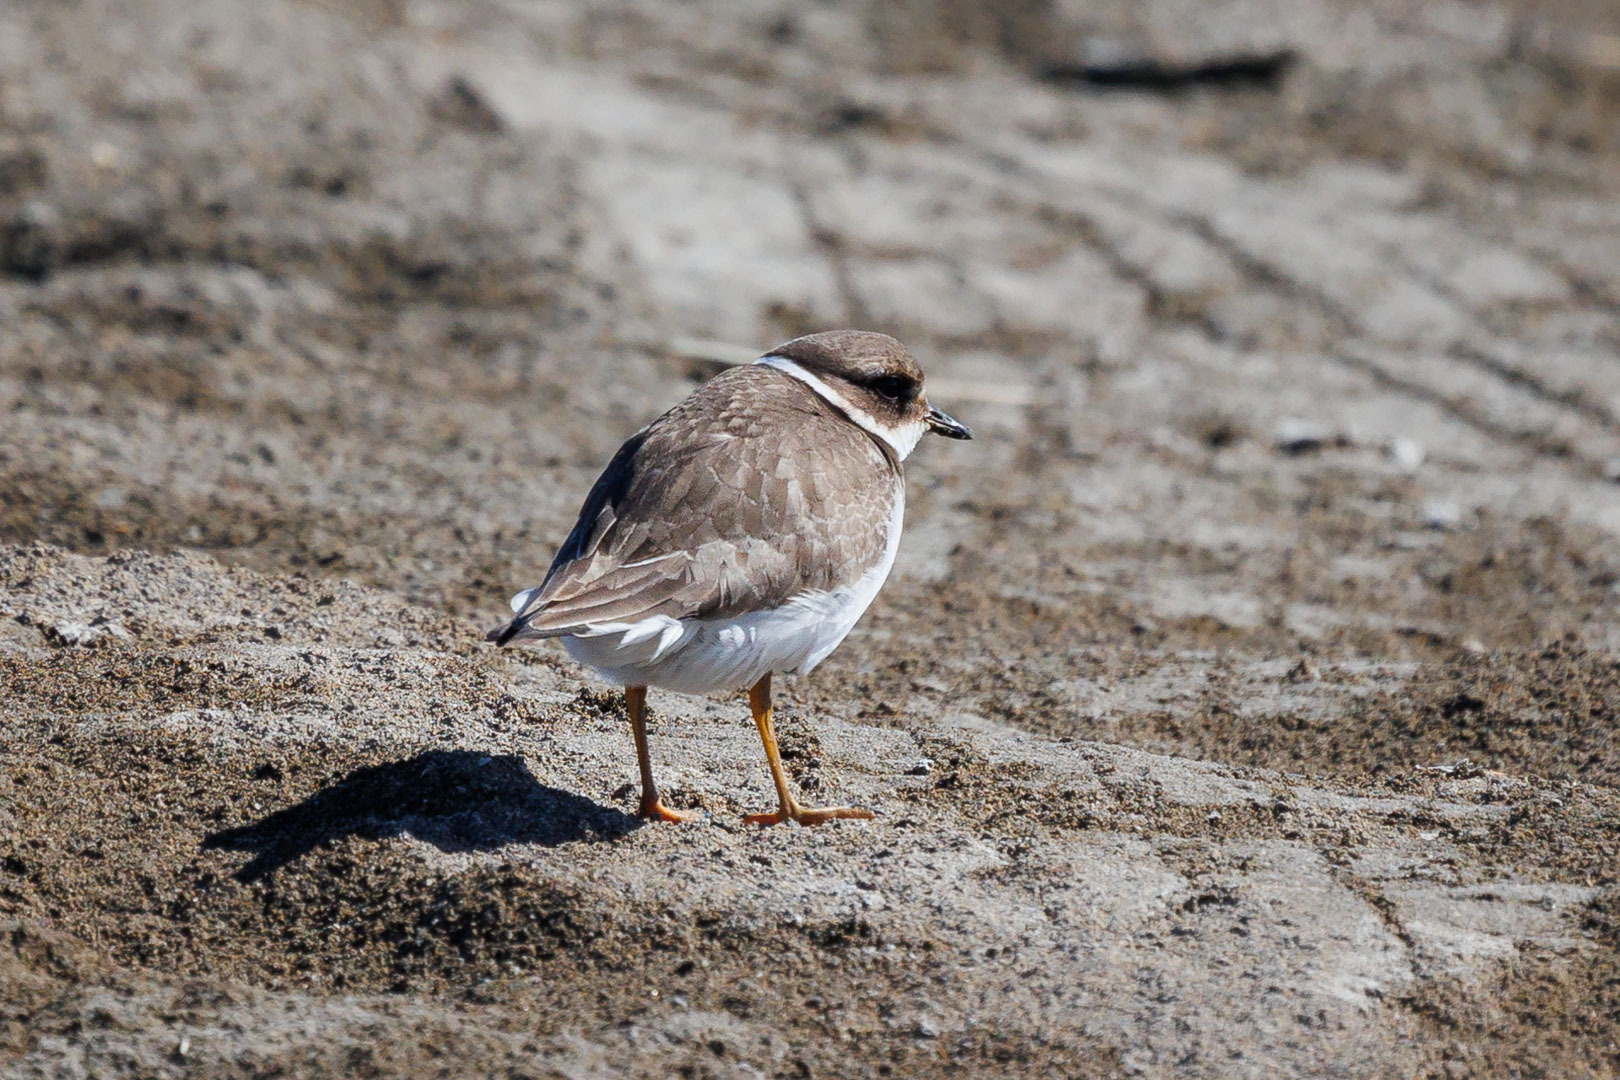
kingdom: Animalia
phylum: Chordata
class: Aves
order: Charadriiformes
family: Charadriidae
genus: Charadrius
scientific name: Charadrius hiaticula
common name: Common ringed plover
